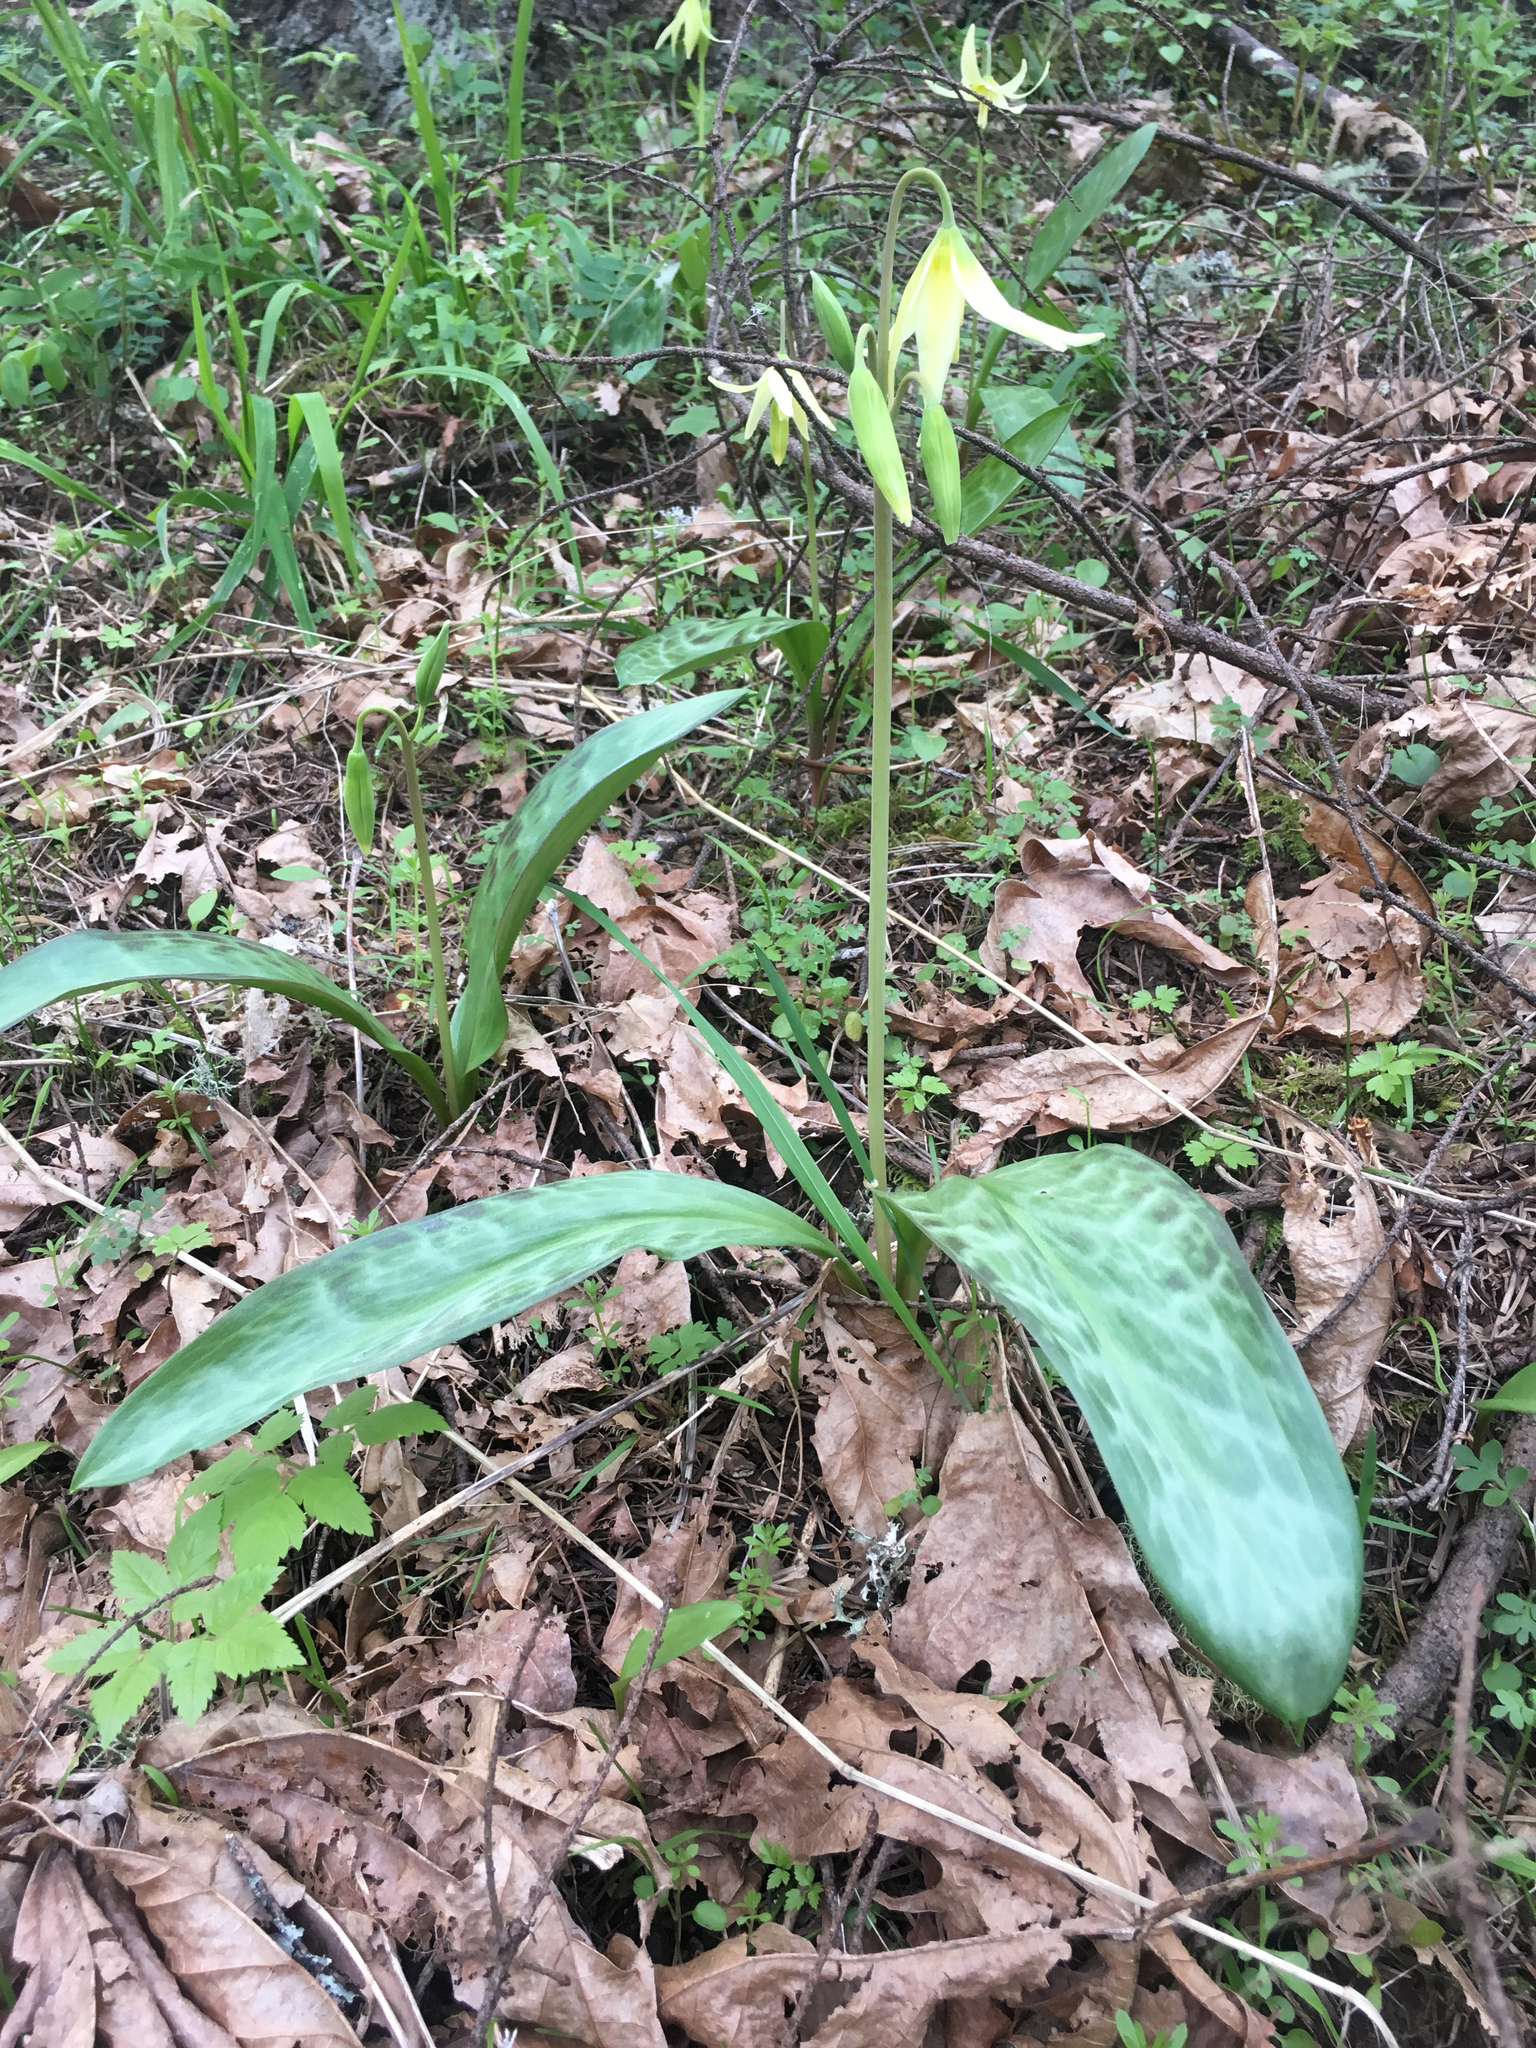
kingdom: Plantae
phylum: Tracheophyta
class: Liliopsida
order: Liliales
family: Liliaceae
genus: Erythronium
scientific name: Erythronium oregonum
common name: Giant adder's-tongue
